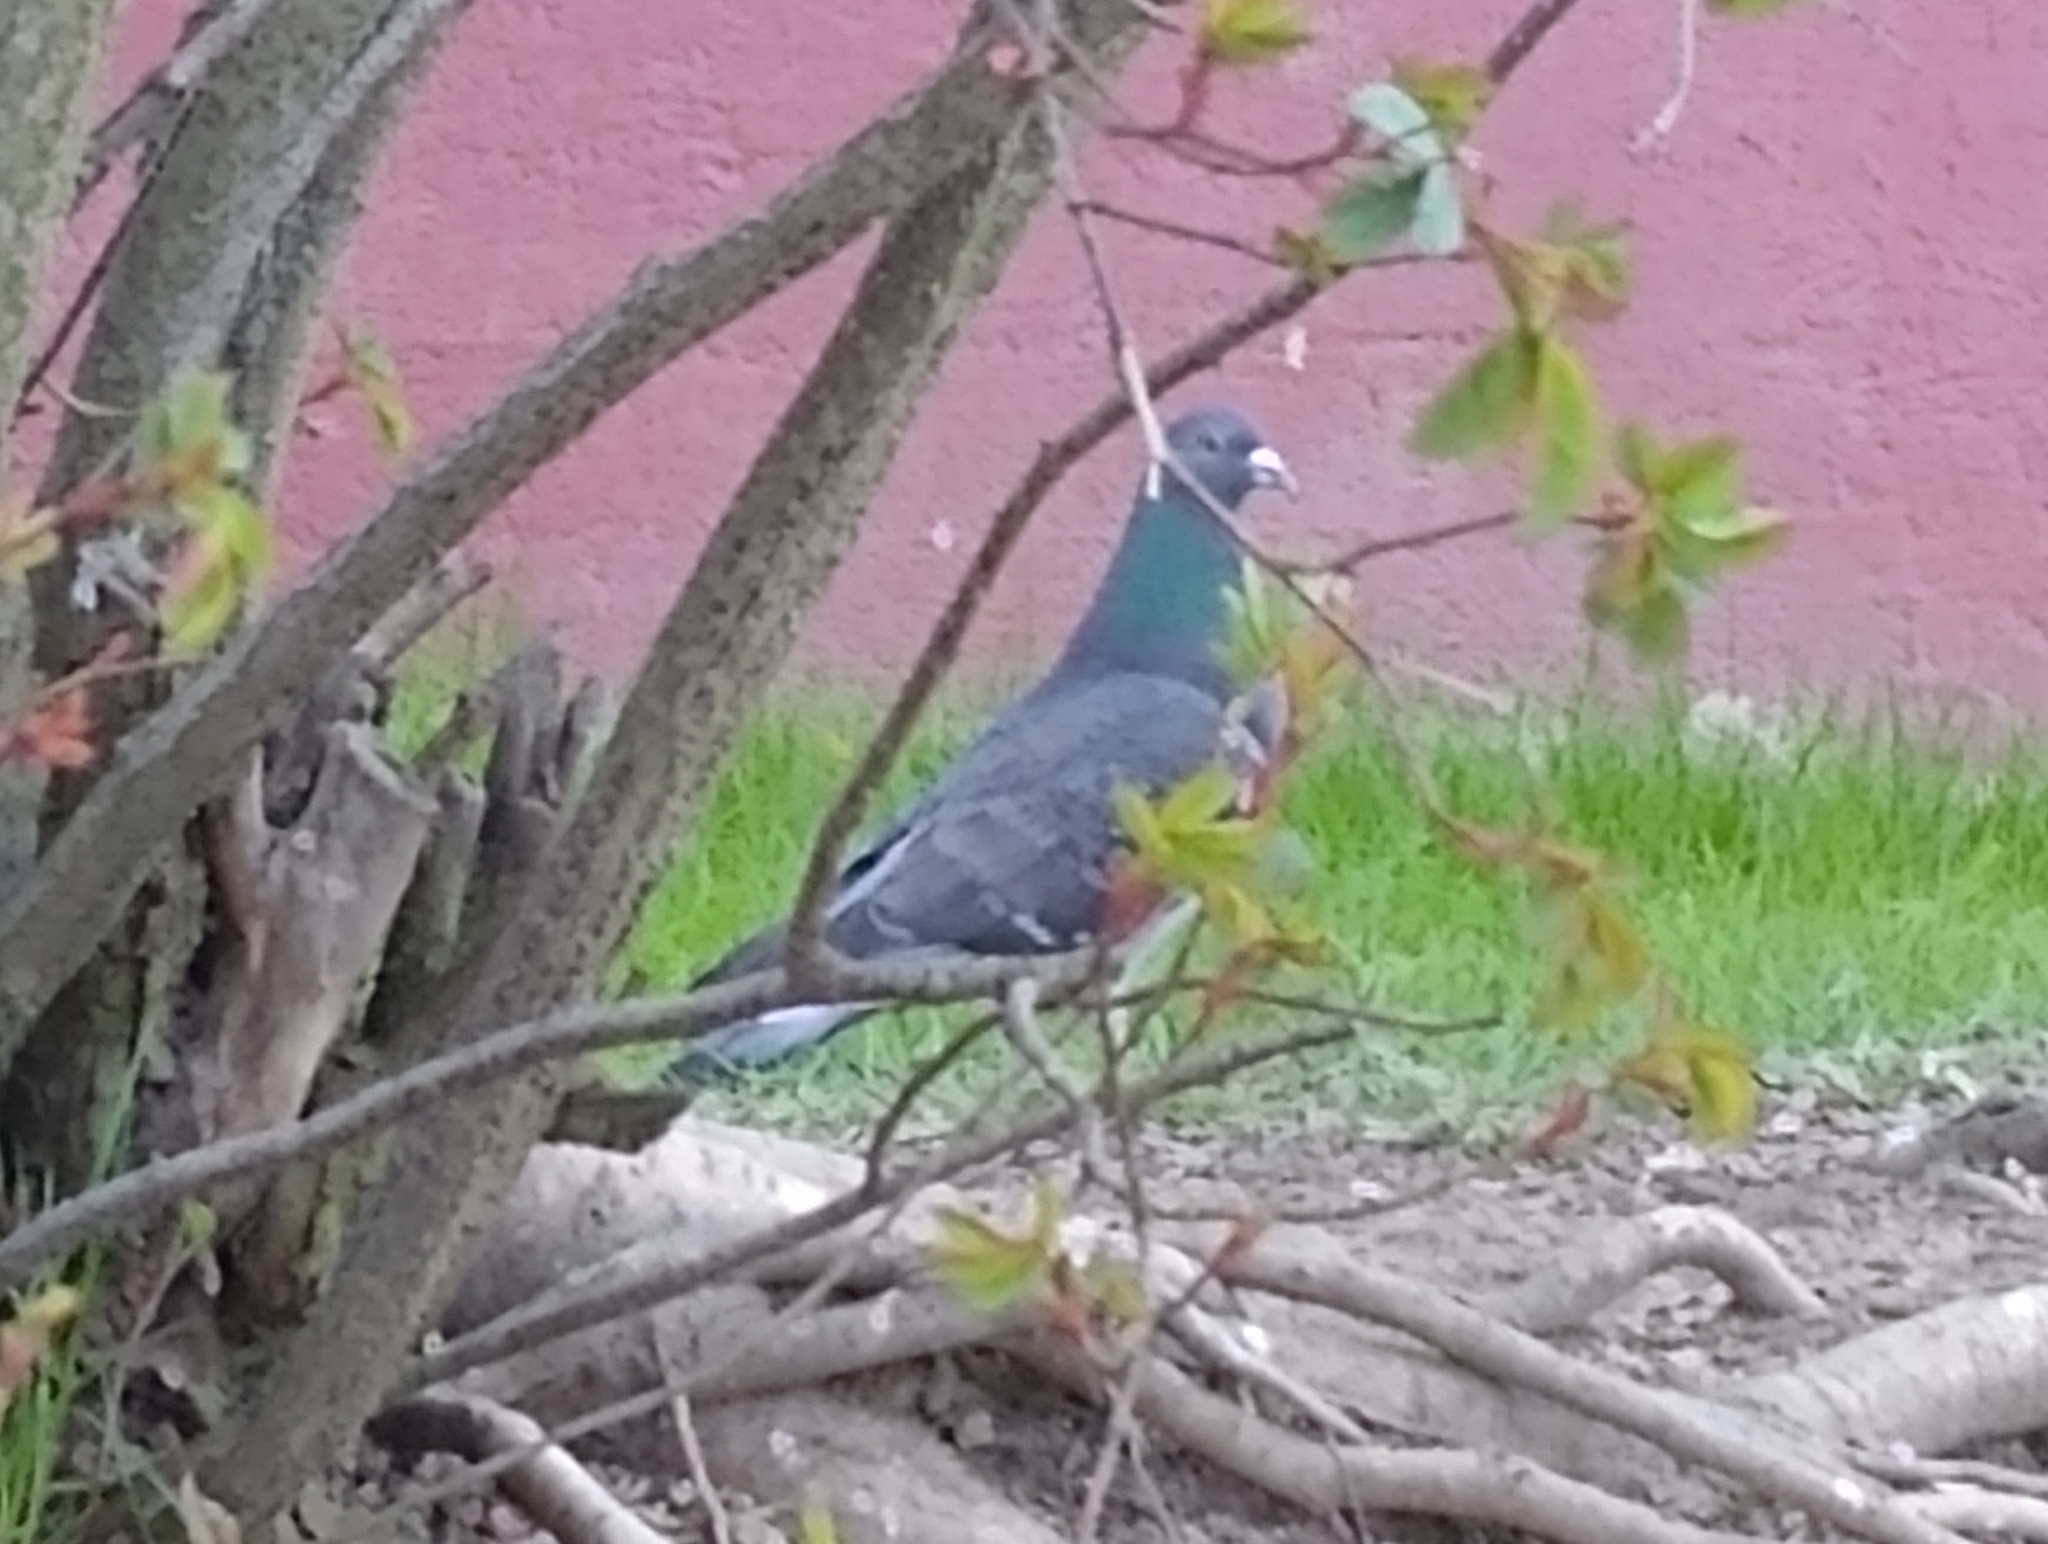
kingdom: Animalia
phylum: Chordata
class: Aves
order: Columbiformes
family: Columbidae
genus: Columba
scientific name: Columba livia
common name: Rock pigeon
